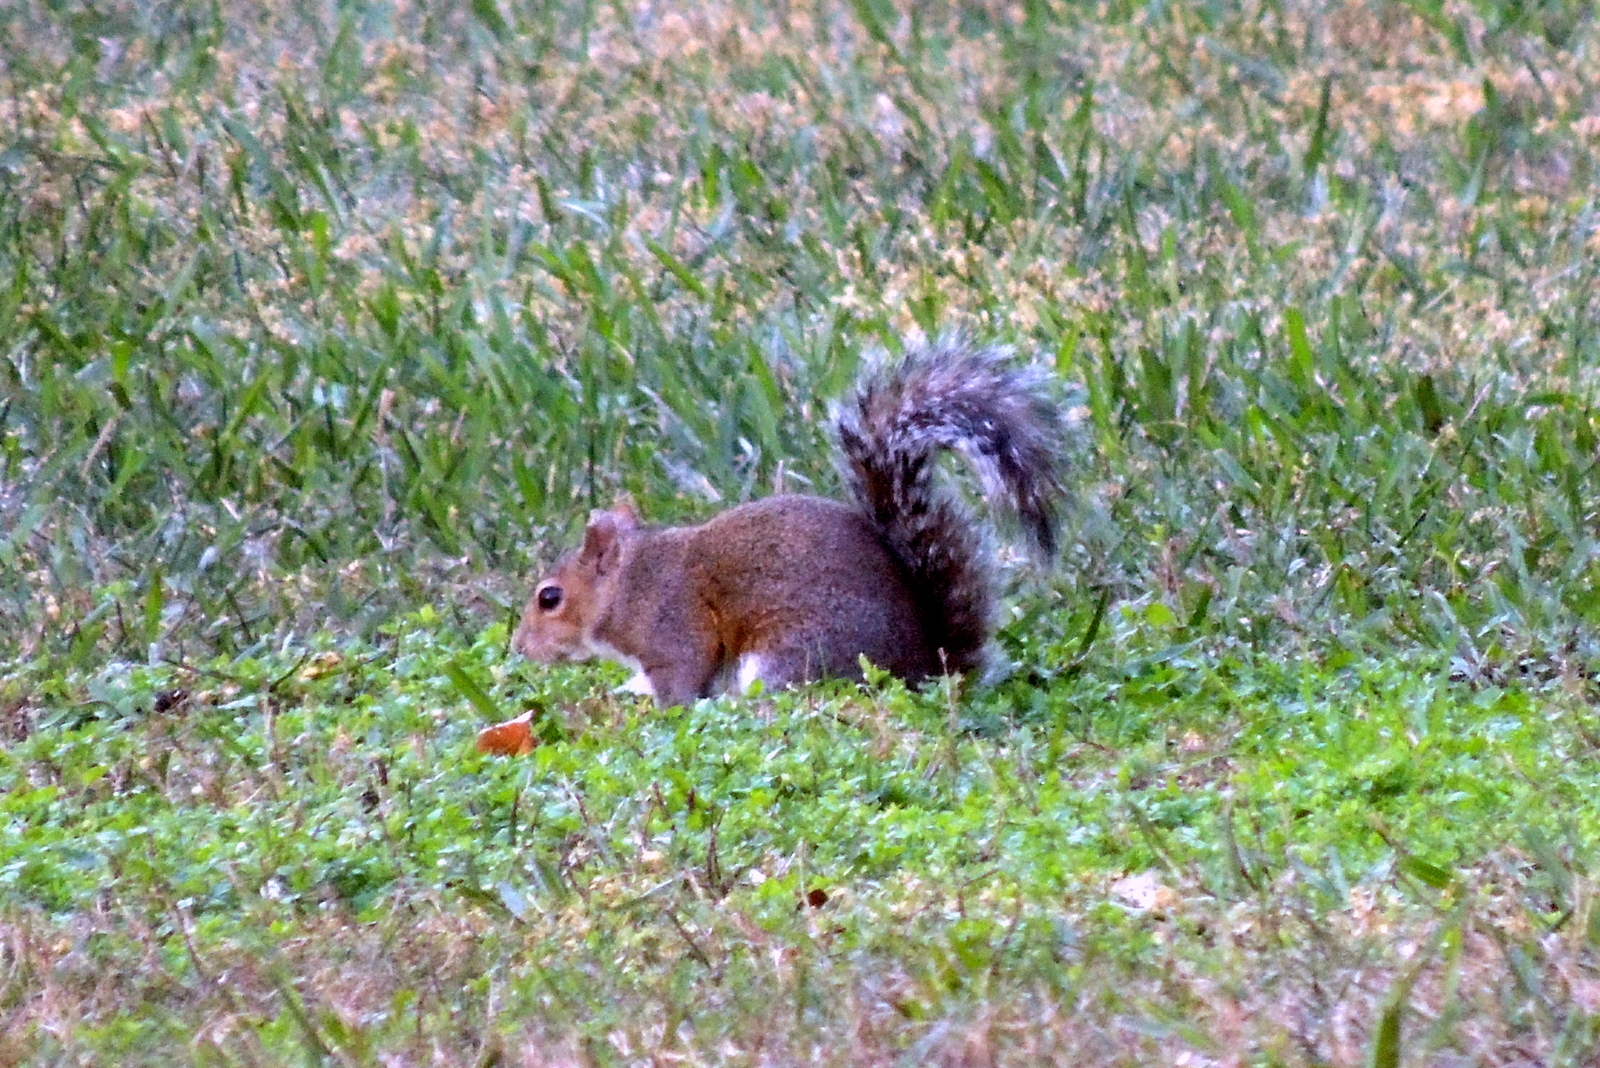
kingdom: Animalia
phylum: Chordata
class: Mammalia
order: Rodentia
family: Sciuridae
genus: Sciurus
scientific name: Sciurus carolinensis
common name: Eastern gray squirrel
